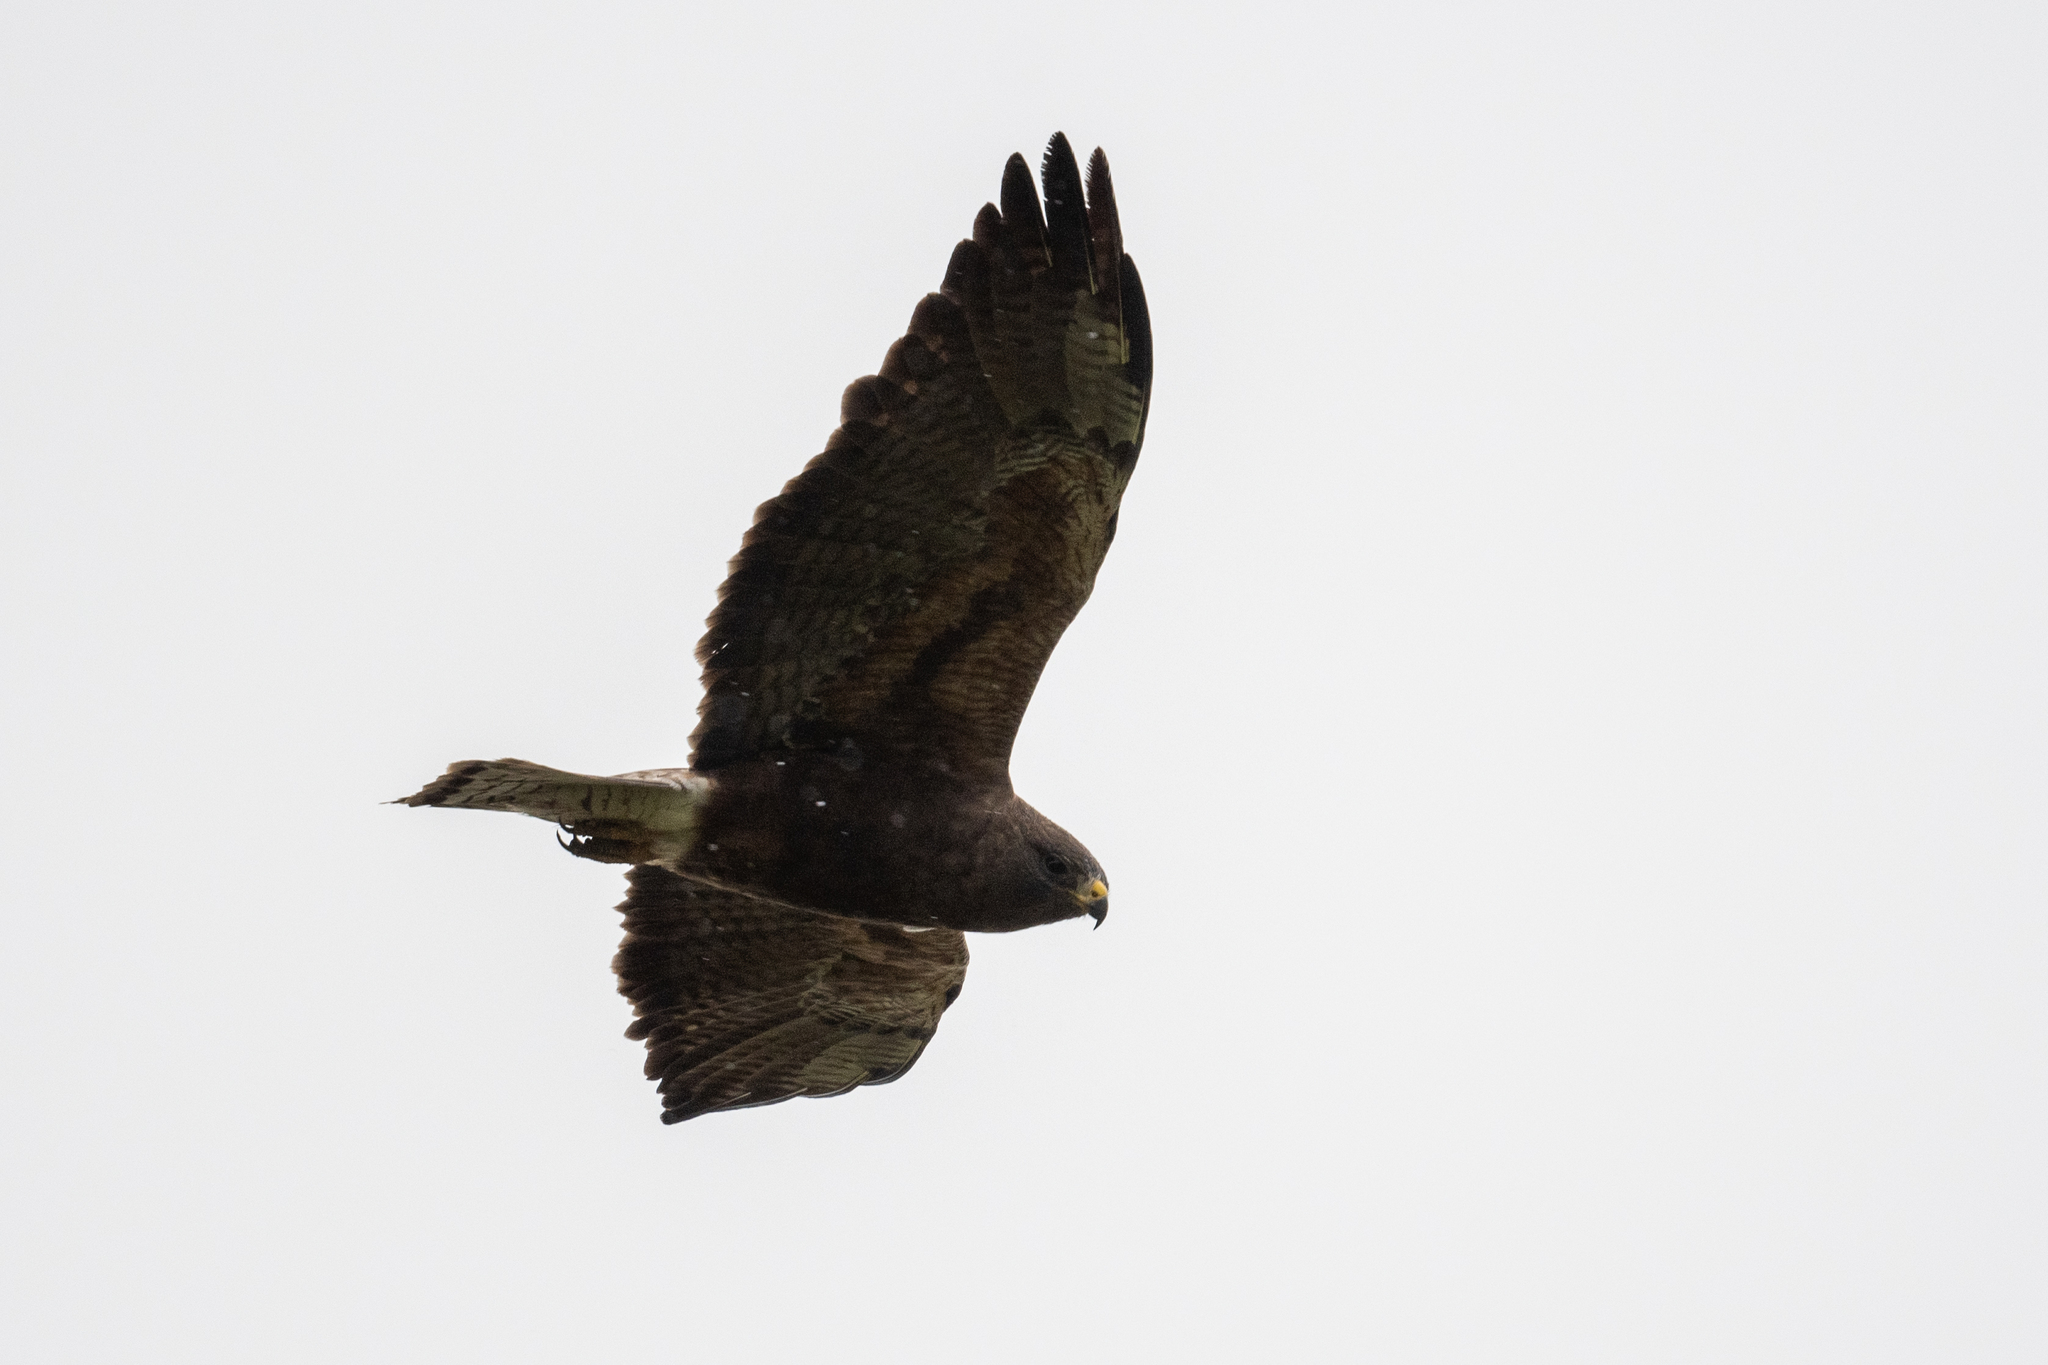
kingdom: Animalia
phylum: Chordata
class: Aves
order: Accipitriformes
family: Accipitridae
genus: Buteo
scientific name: Buteo swainsoni
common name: Swainson's hawk
